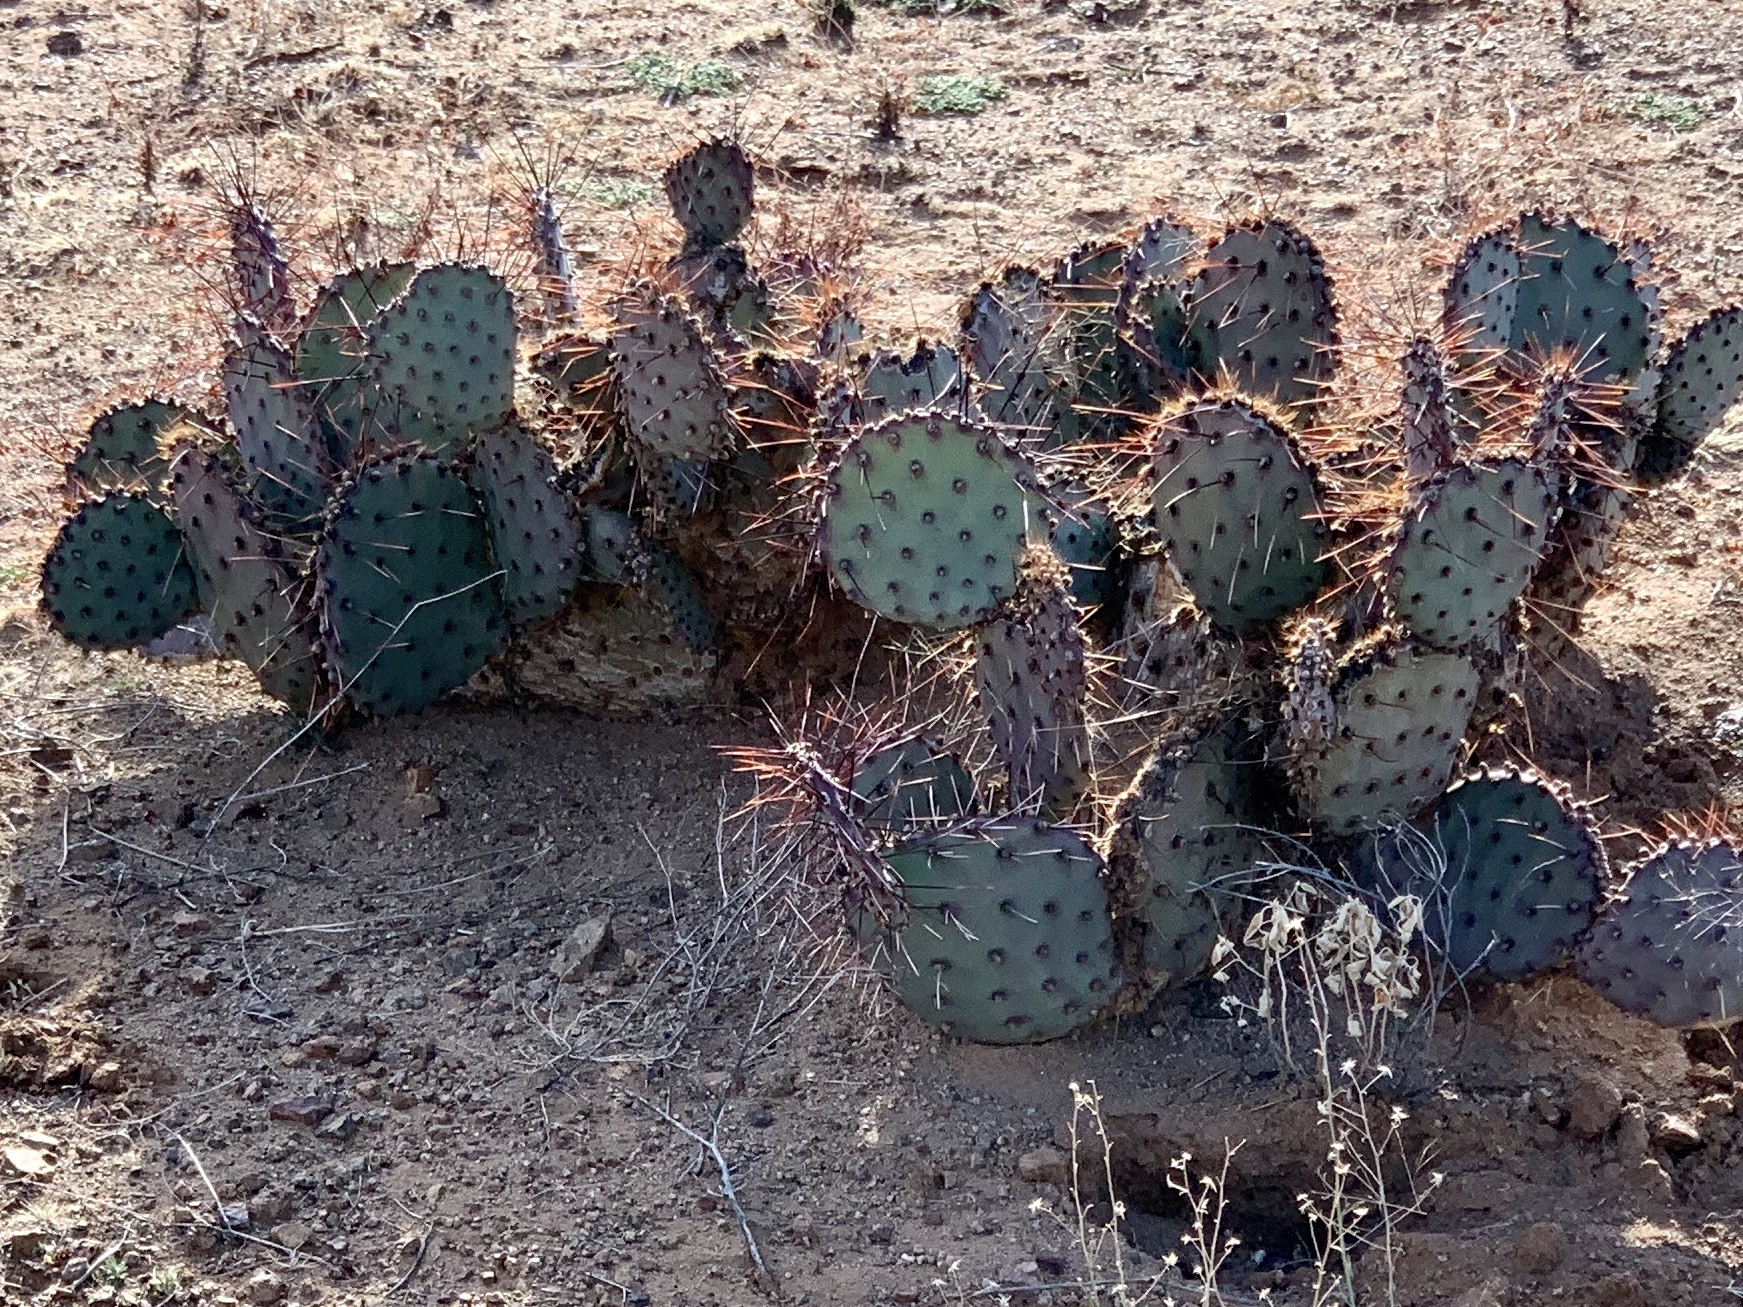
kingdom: Plantae
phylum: Tracheophyta
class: Magnoliopsida
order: Caryophyllales
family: Cactaceae
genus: Opuntia
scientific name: Opuntia macrocentra
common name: Purple prickly-pear
